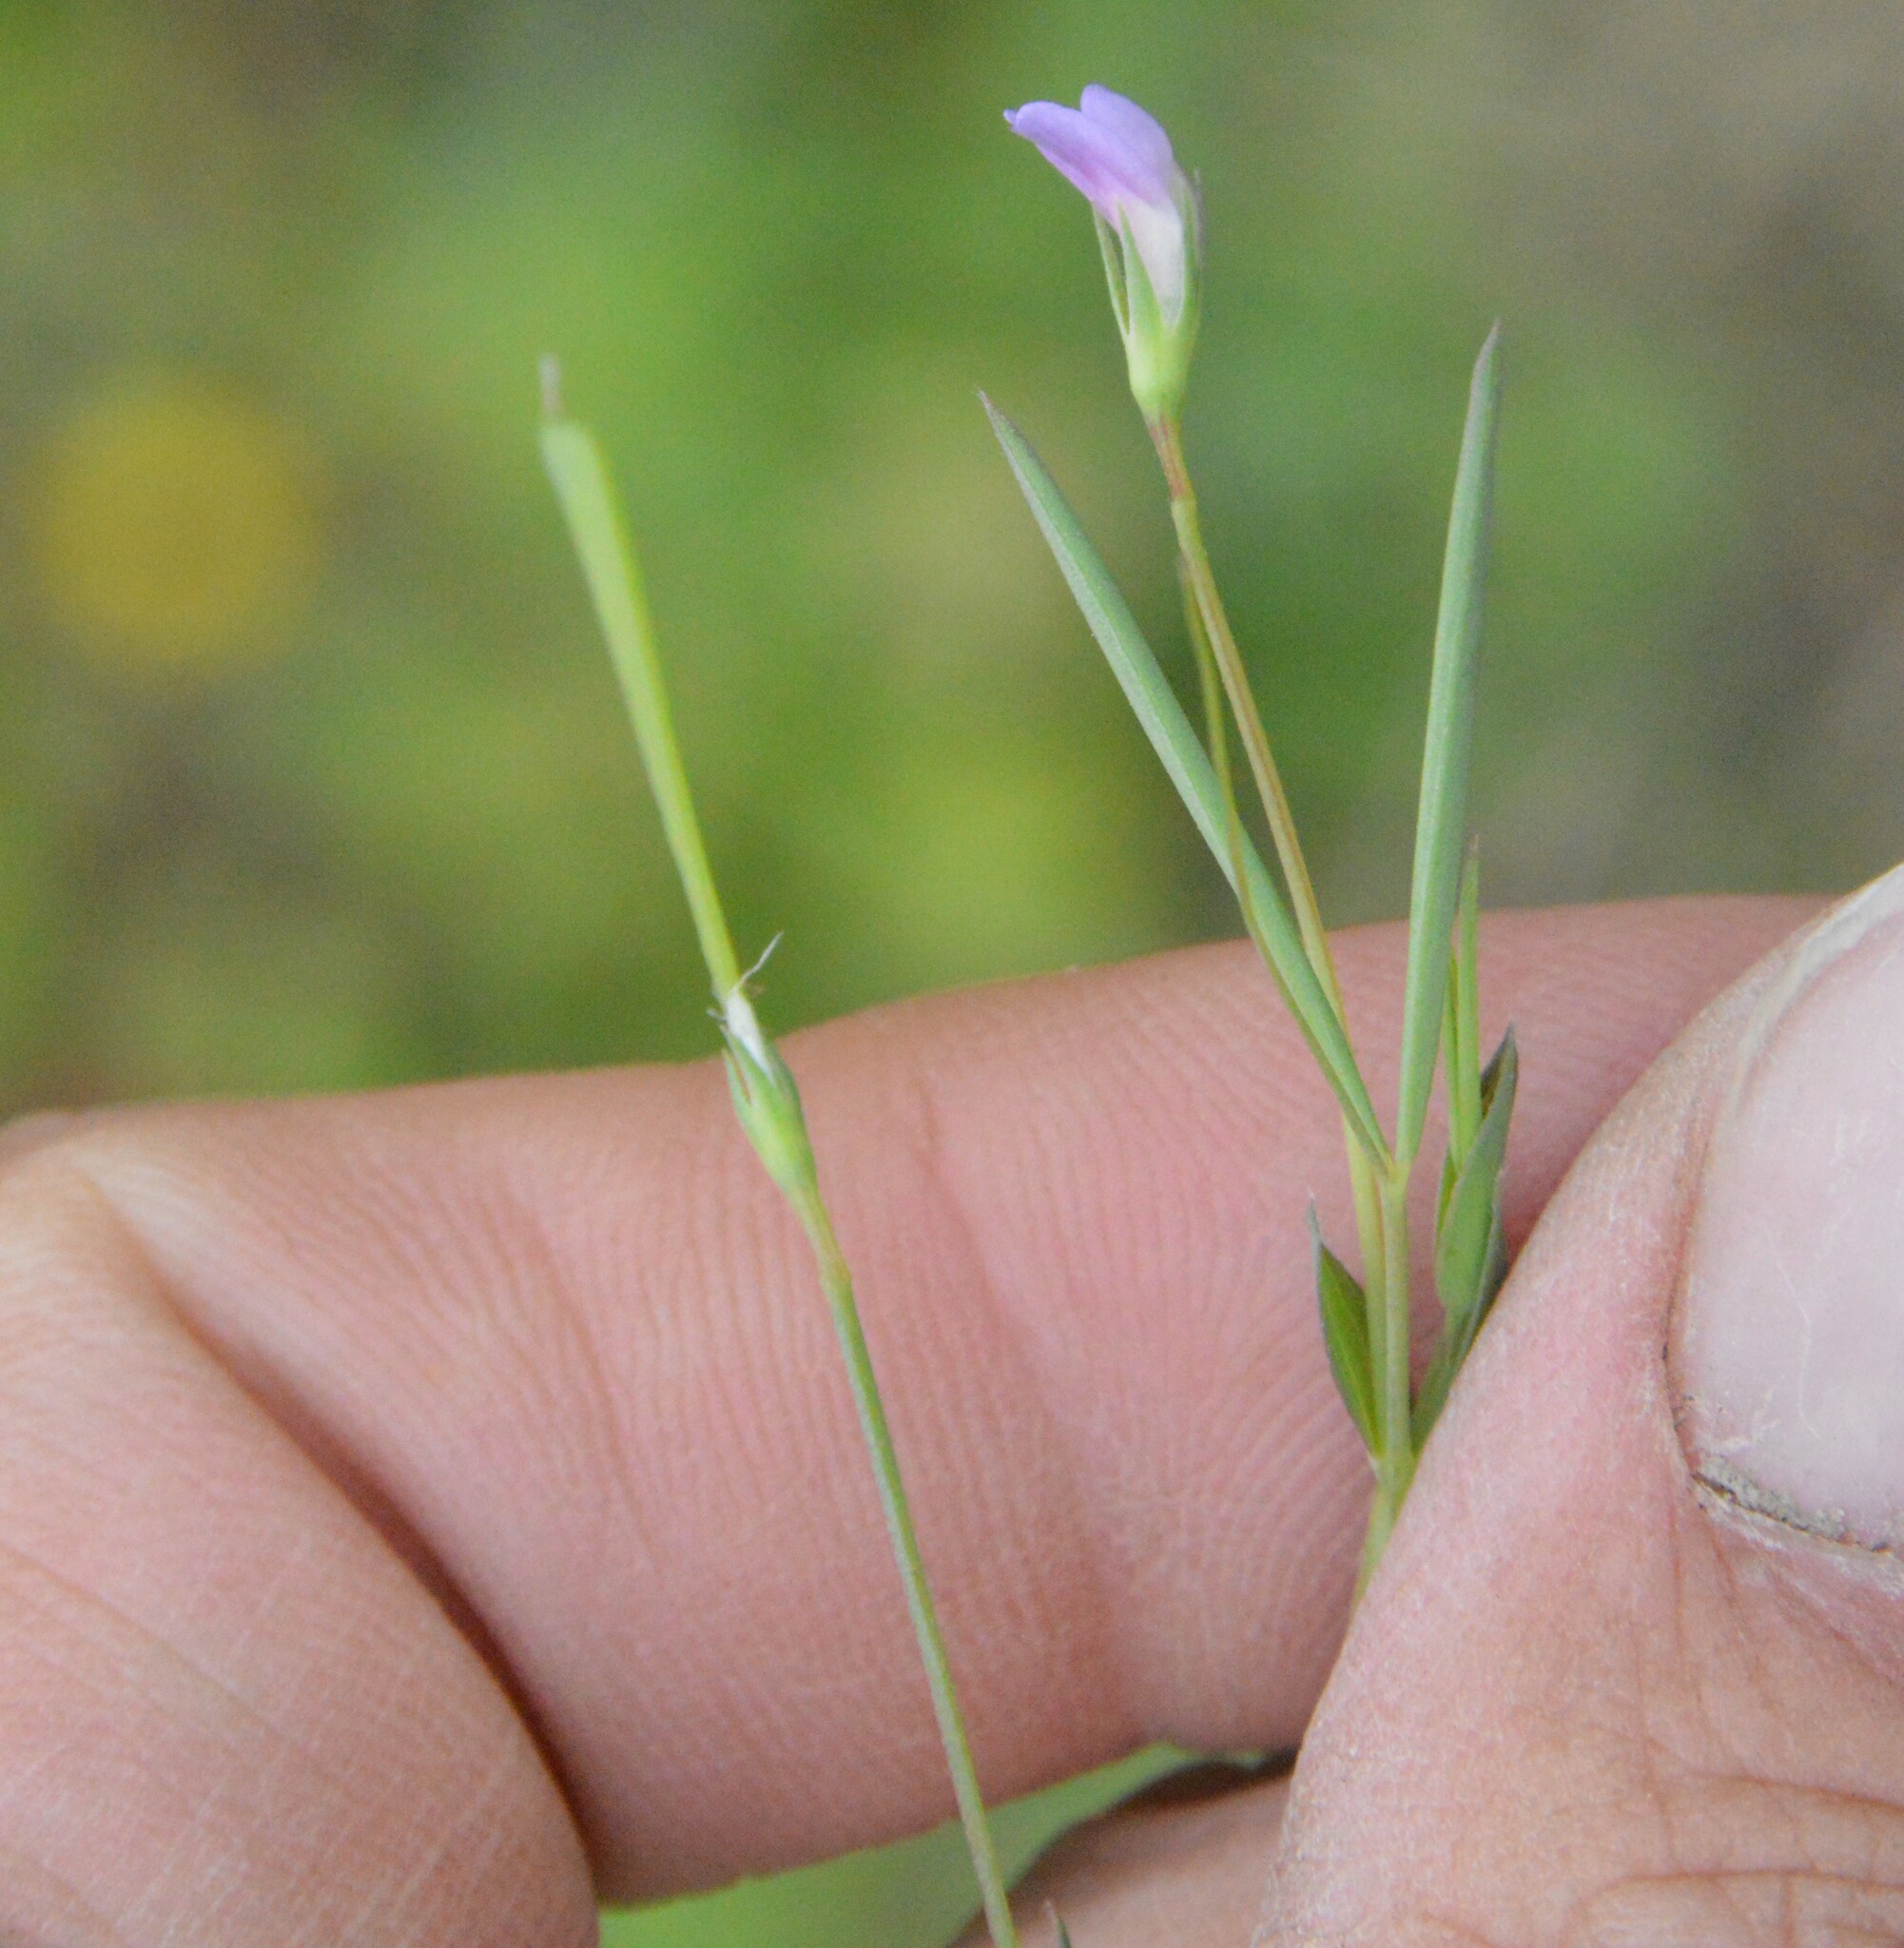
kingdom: Plantae
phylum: Tracheophyta
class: Magnoliopsida
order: Fabales
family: Fabaceae
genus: Lathyrus
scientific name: Lathyrus pusillus
